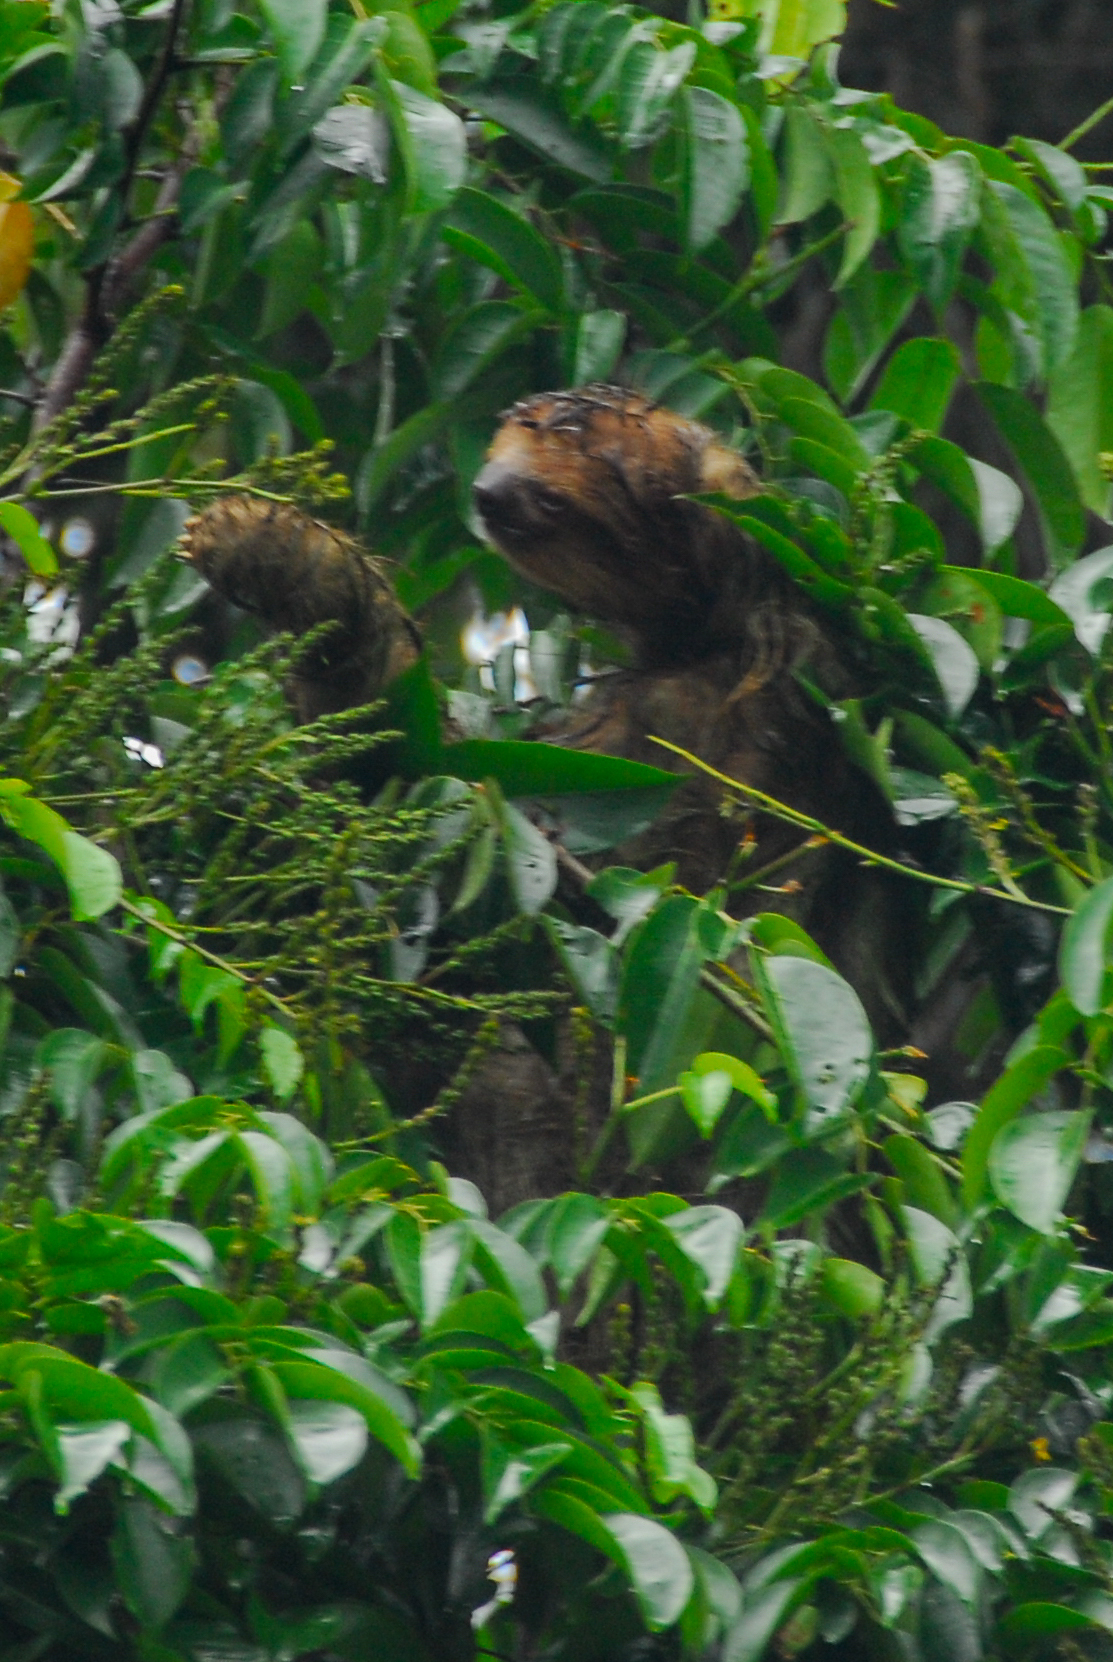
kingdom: Animalia
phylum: Chordata
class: Mammalia
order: Pilosa
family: Bradypodidae
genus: Bradypus
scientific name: Bradypus variegatus
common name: Brown-throated three-toed sloth
